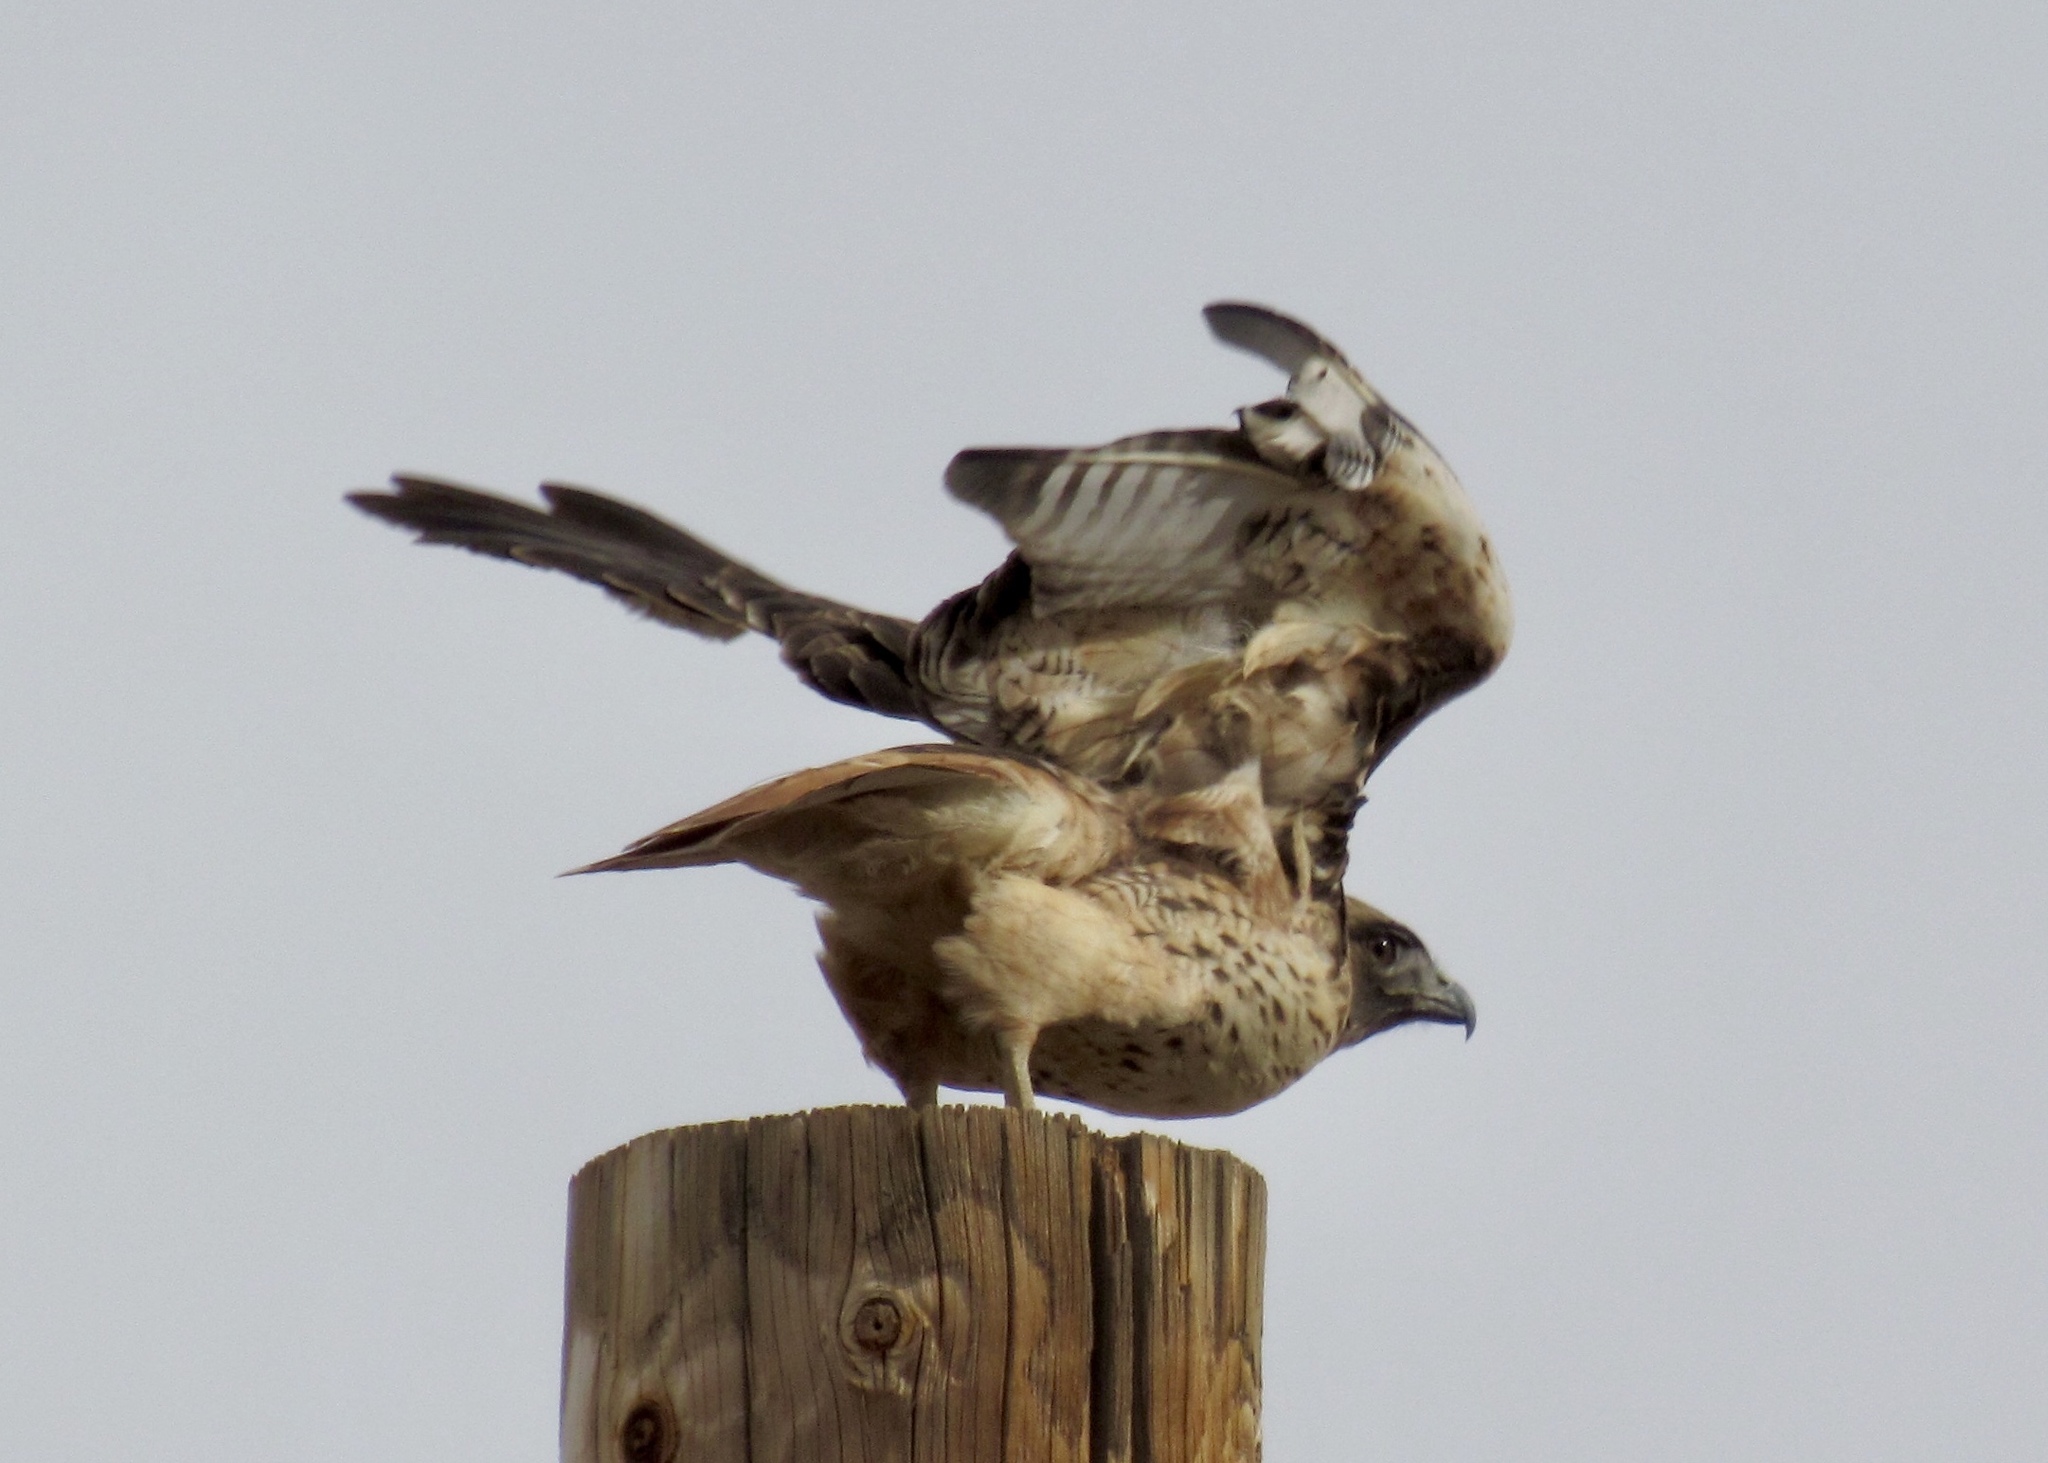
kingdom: Animalia
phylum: Chordata
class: Aves
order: Accipitriformes
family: Accipitridae
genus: Buteo
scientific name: Buteo jamaicensis
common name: Red-tailed hawk
